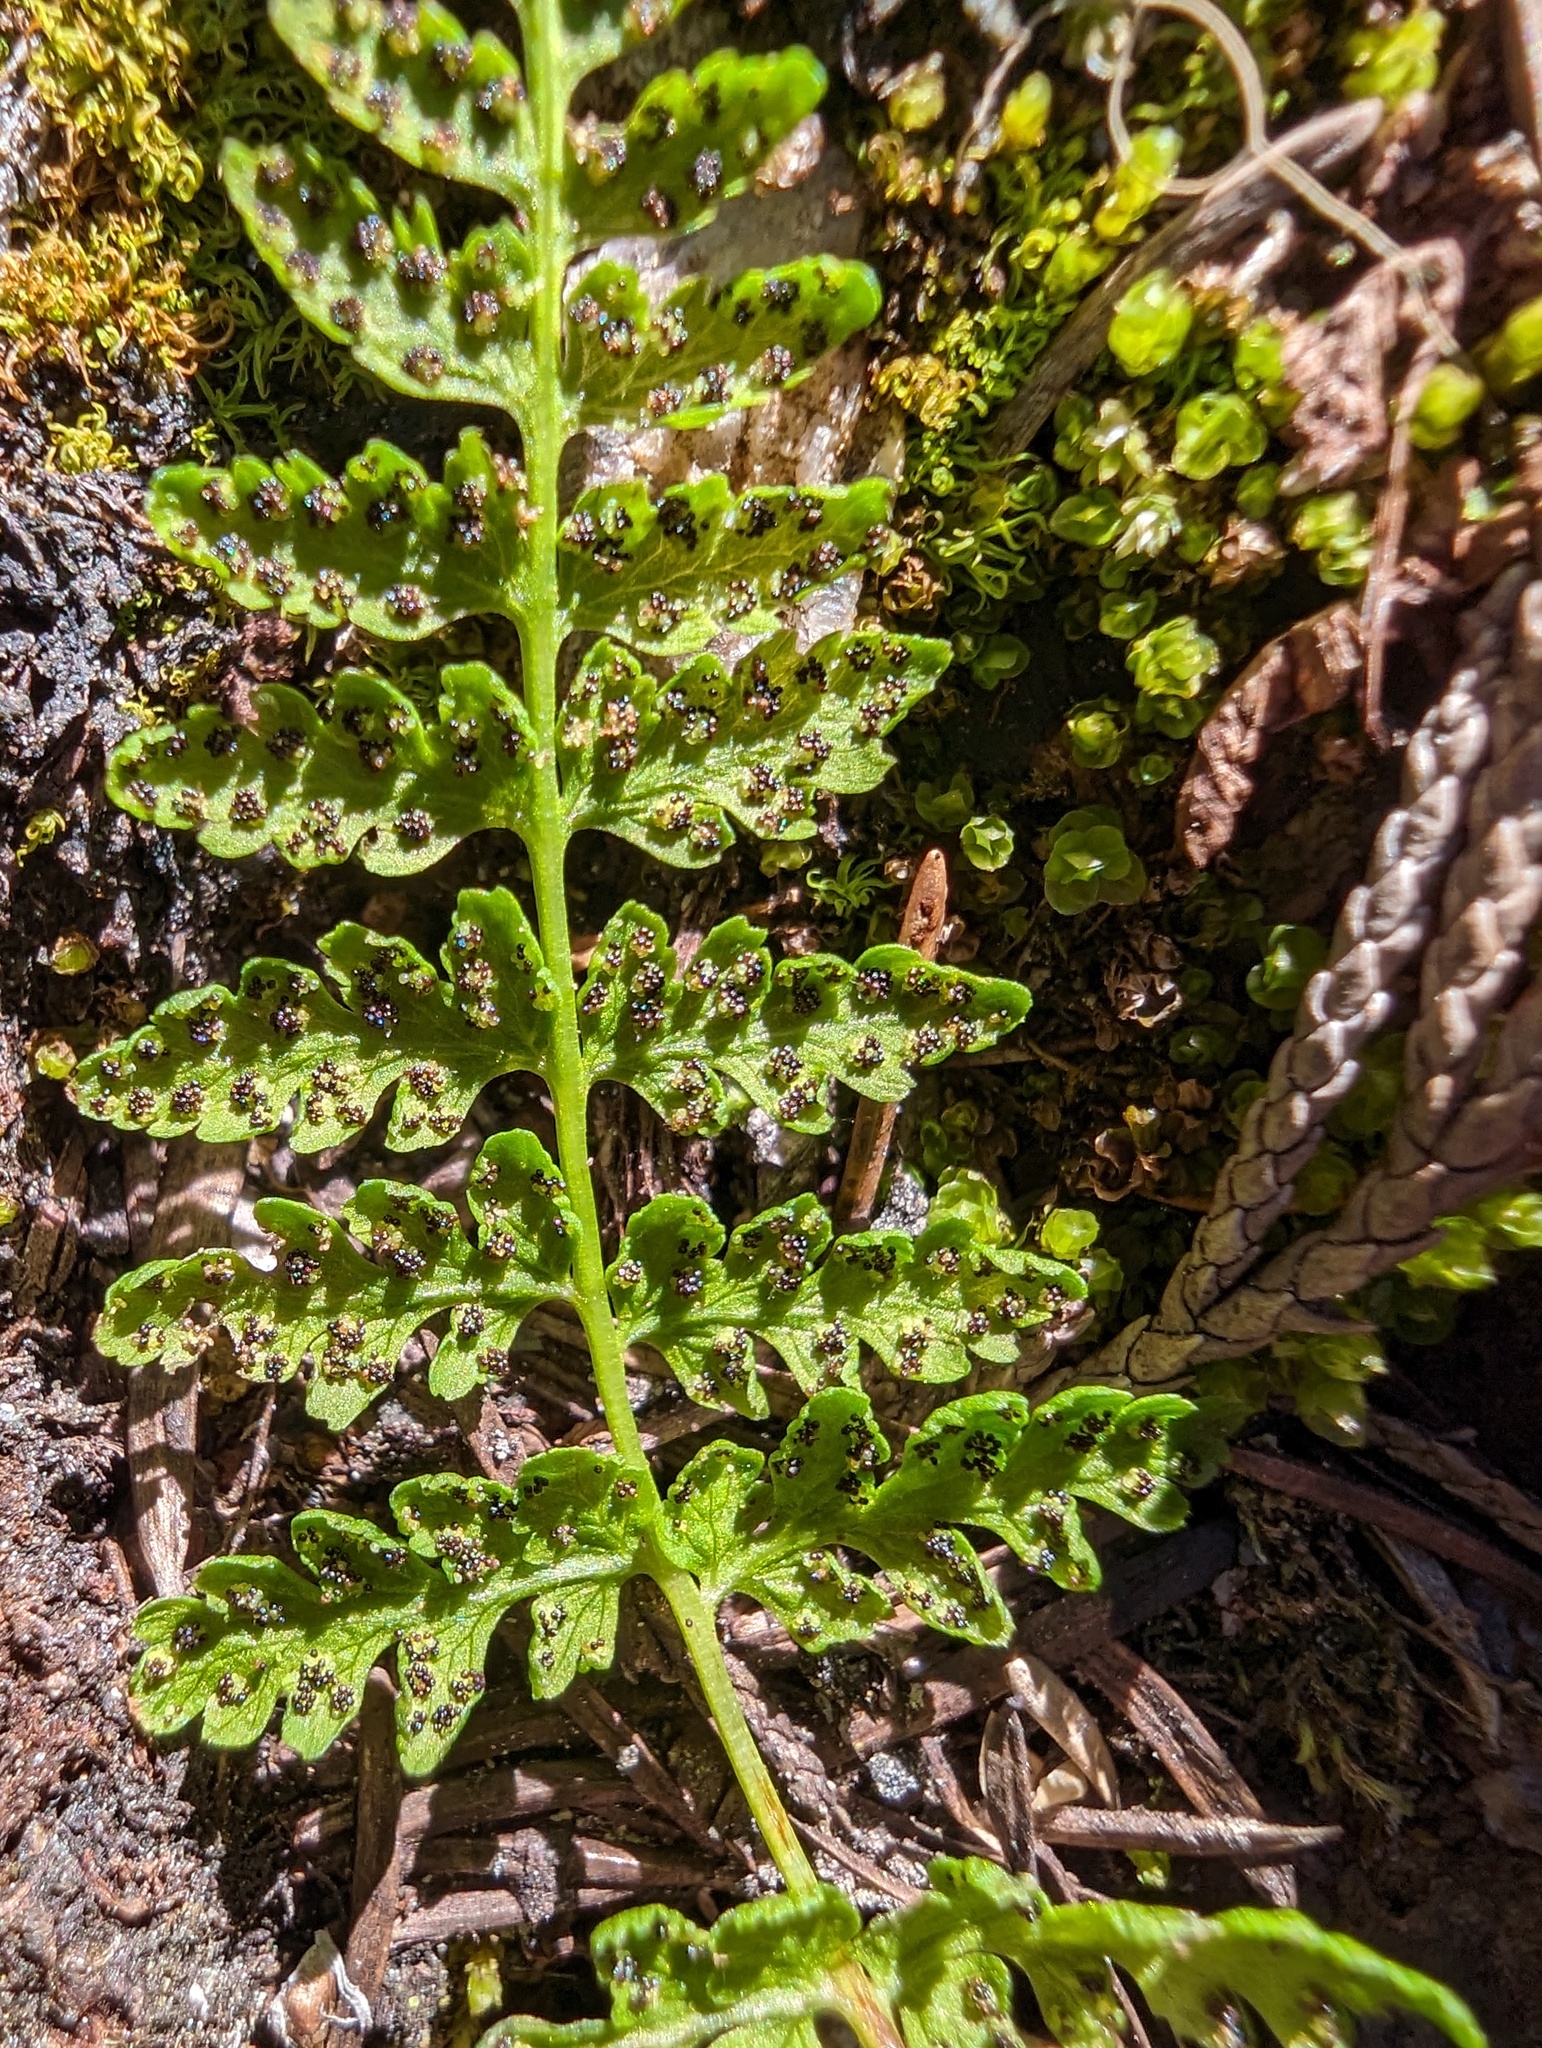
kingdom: Plantae
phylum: Tracheophyta
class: Polypodiopsida
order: Polypodiales
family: Cystopteridaceae
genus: Cystopteris
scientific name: Cystopteris fragilis
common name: Brittle bladder fern
